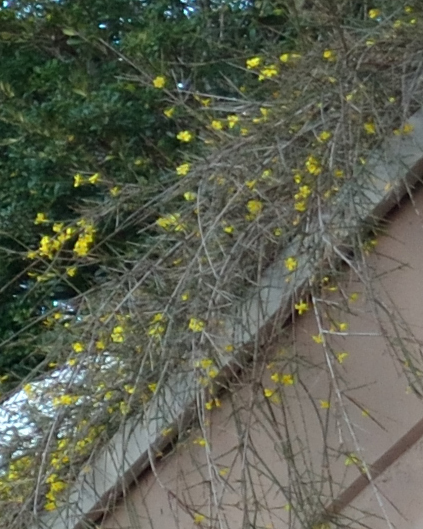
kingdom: Plantae
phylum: Tracheophyta
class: Magnoliopsida
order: Lamiales
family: Oleaceae
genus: Jasminum
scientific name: Jasminum nudiflorum
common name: Winter jasmine
